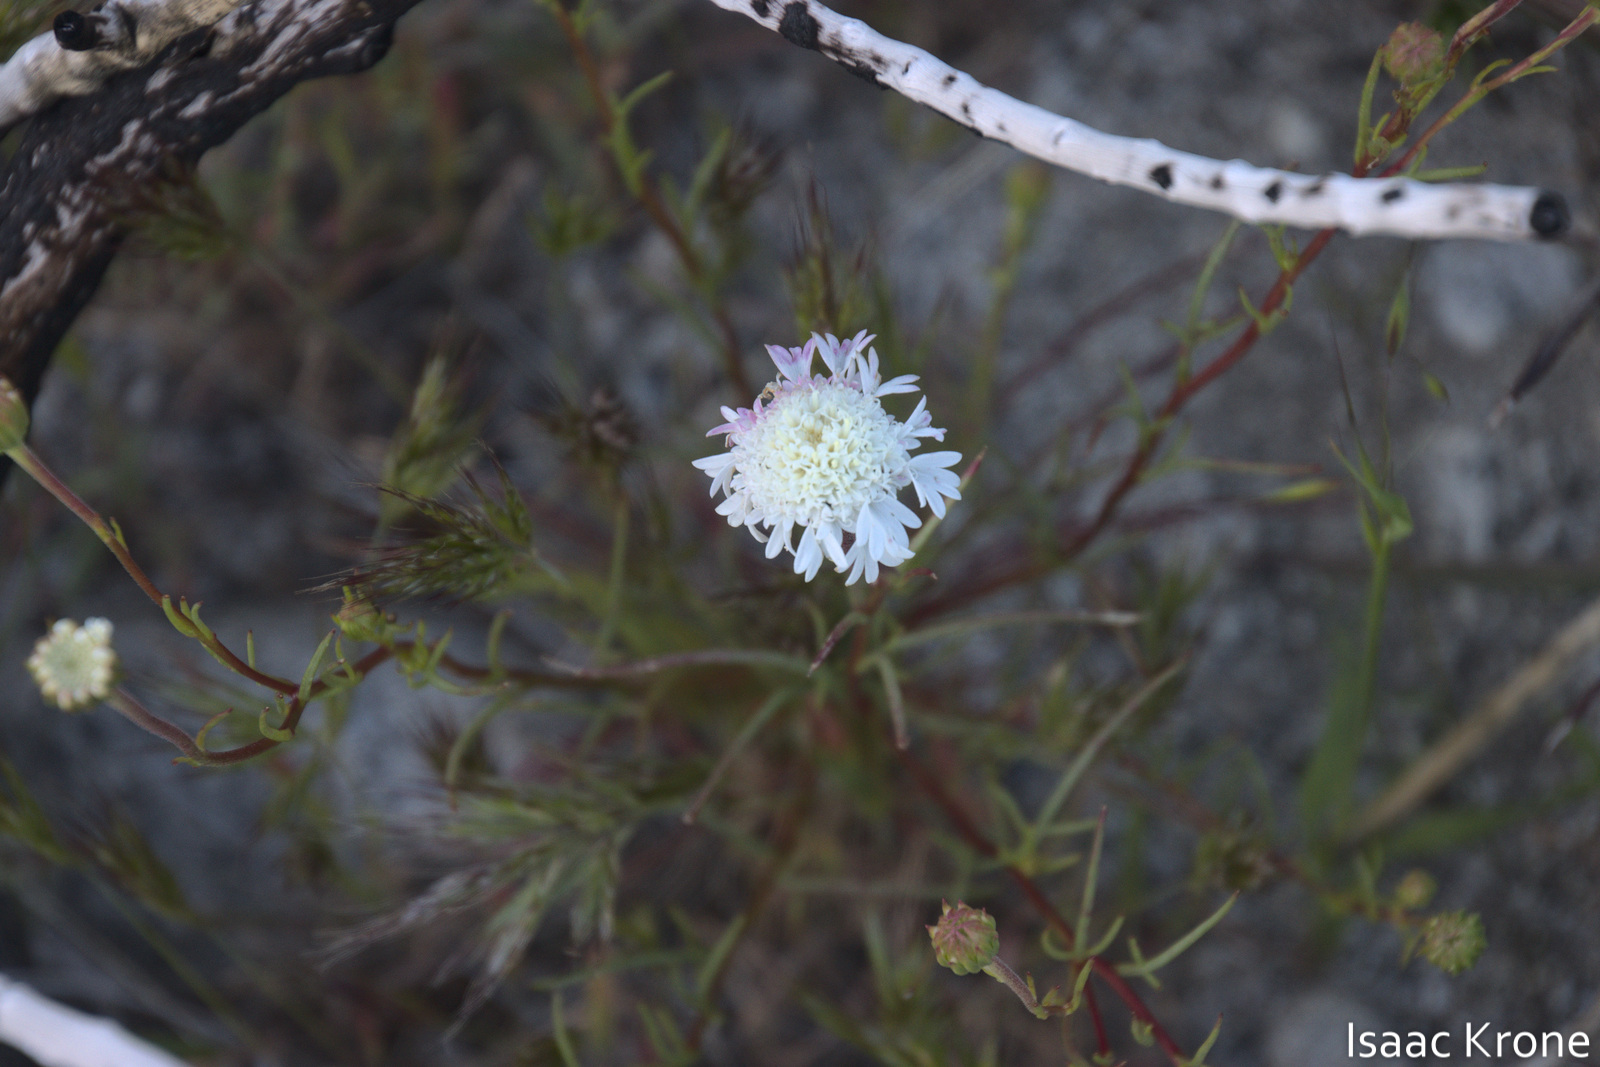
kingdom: Plantae
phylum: Tracheophyta
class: Magnoliopsida
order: Asterales
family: Asteraceae
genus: Chaenactis
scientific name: Chaenactis fremontii
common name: Fremont pincushion
